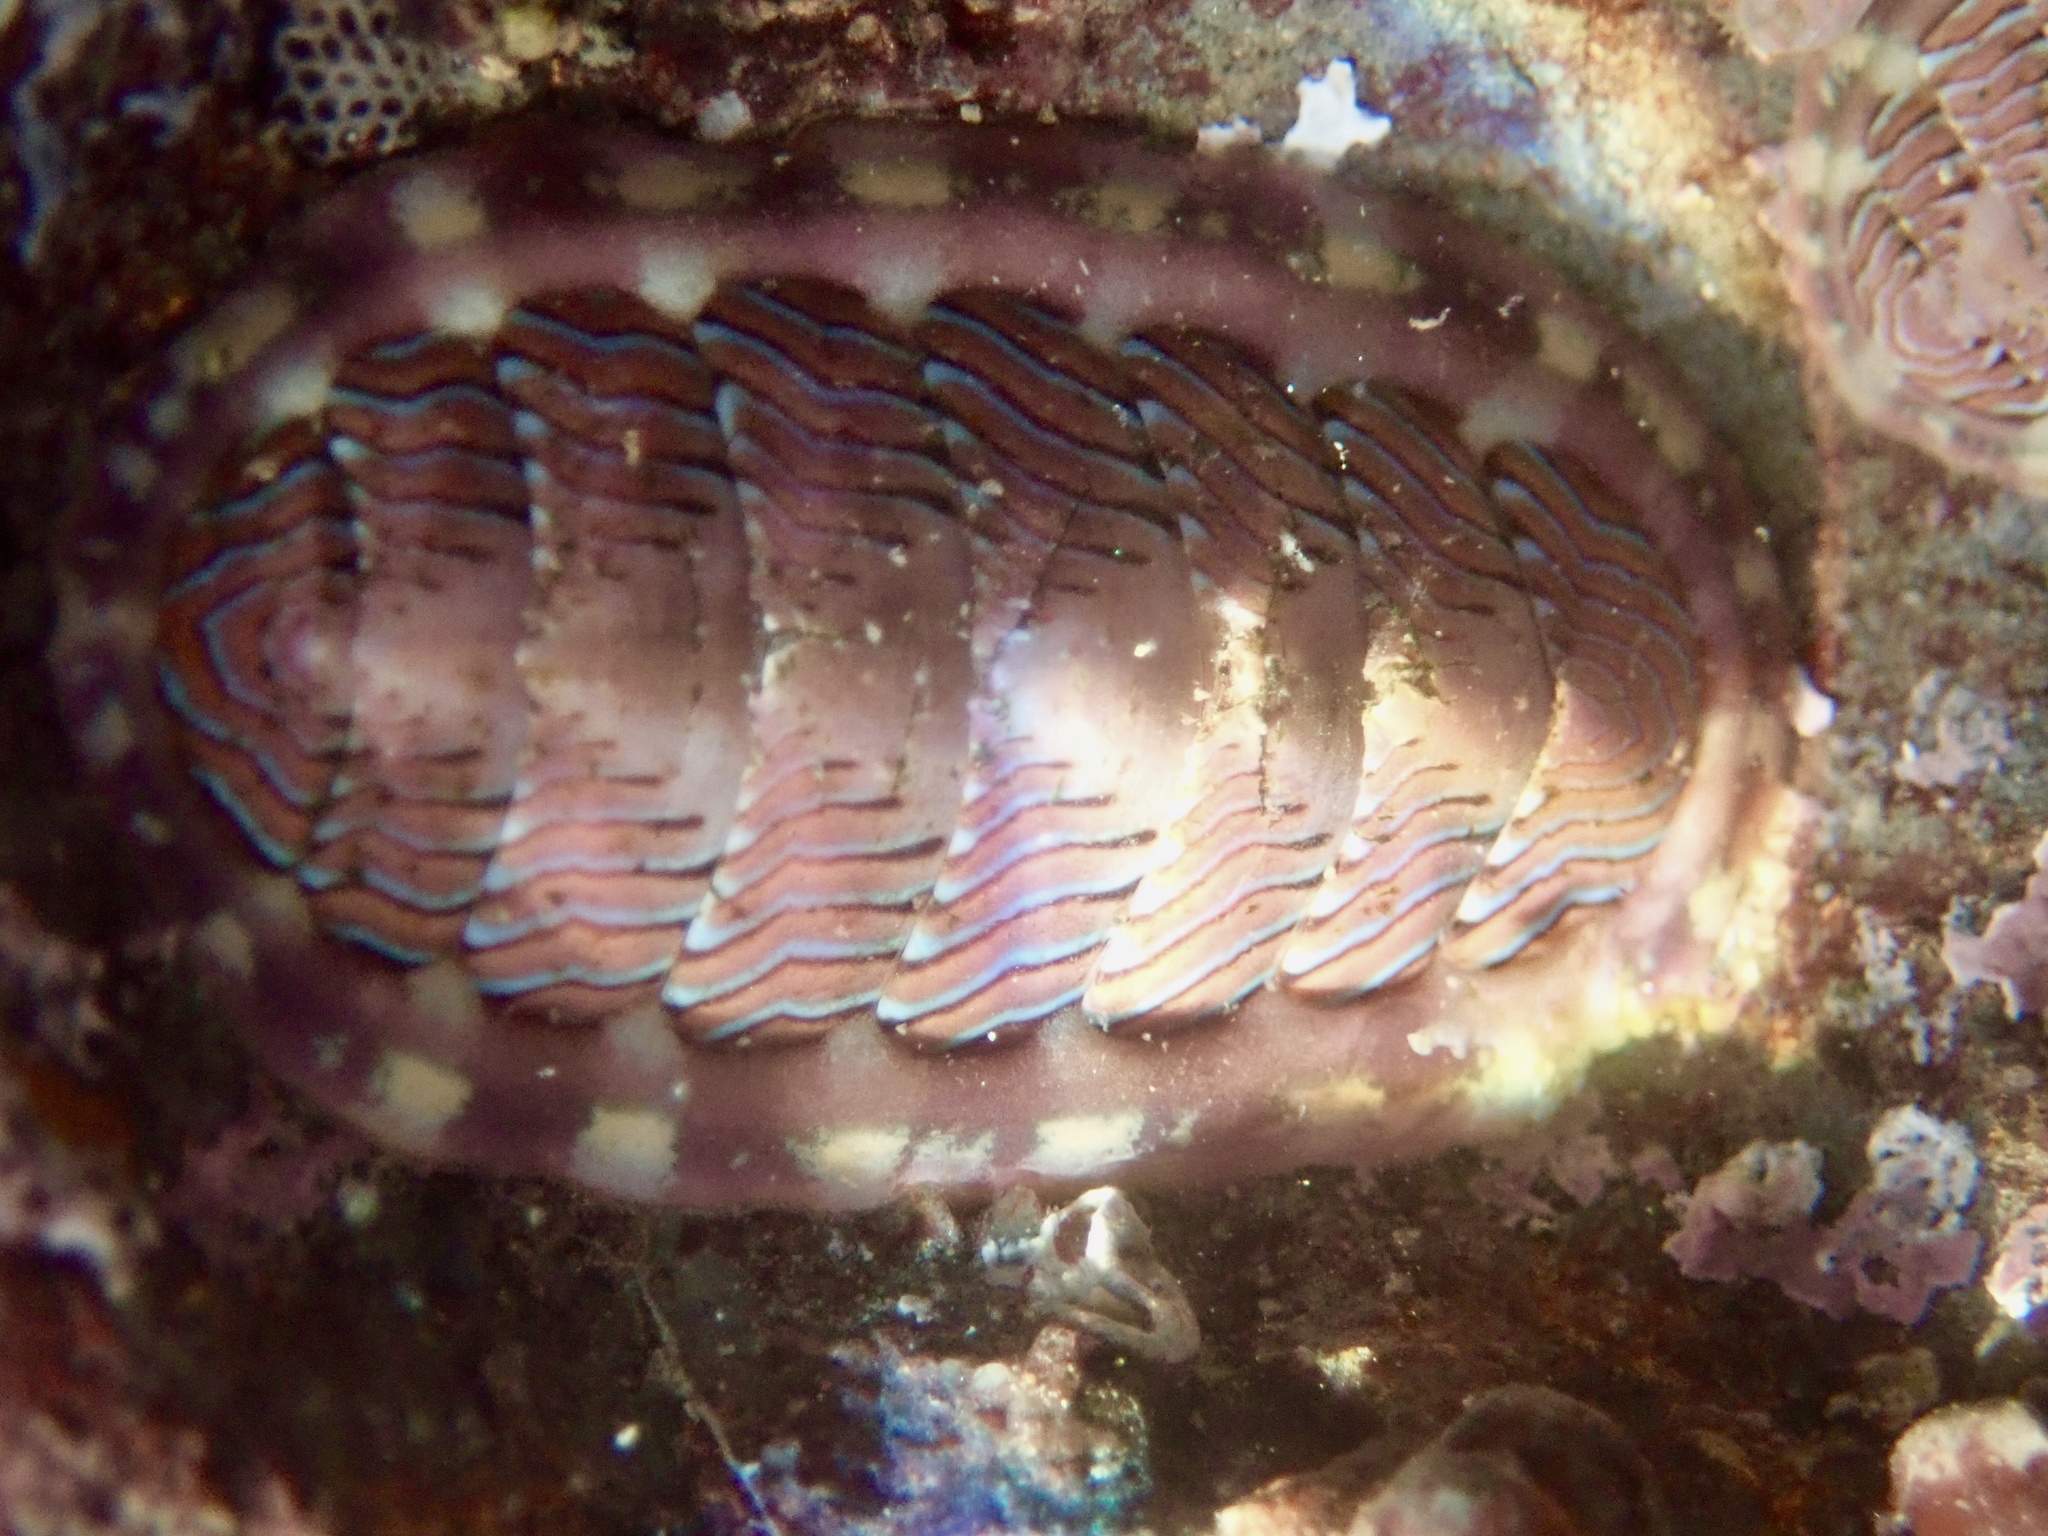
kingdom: Animalia
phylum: Mollusca
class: Polyplacophora
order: Chitonida
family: Tonicellidae
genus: Tonicella
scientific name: Tonicella lineata
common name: Lined chiton
